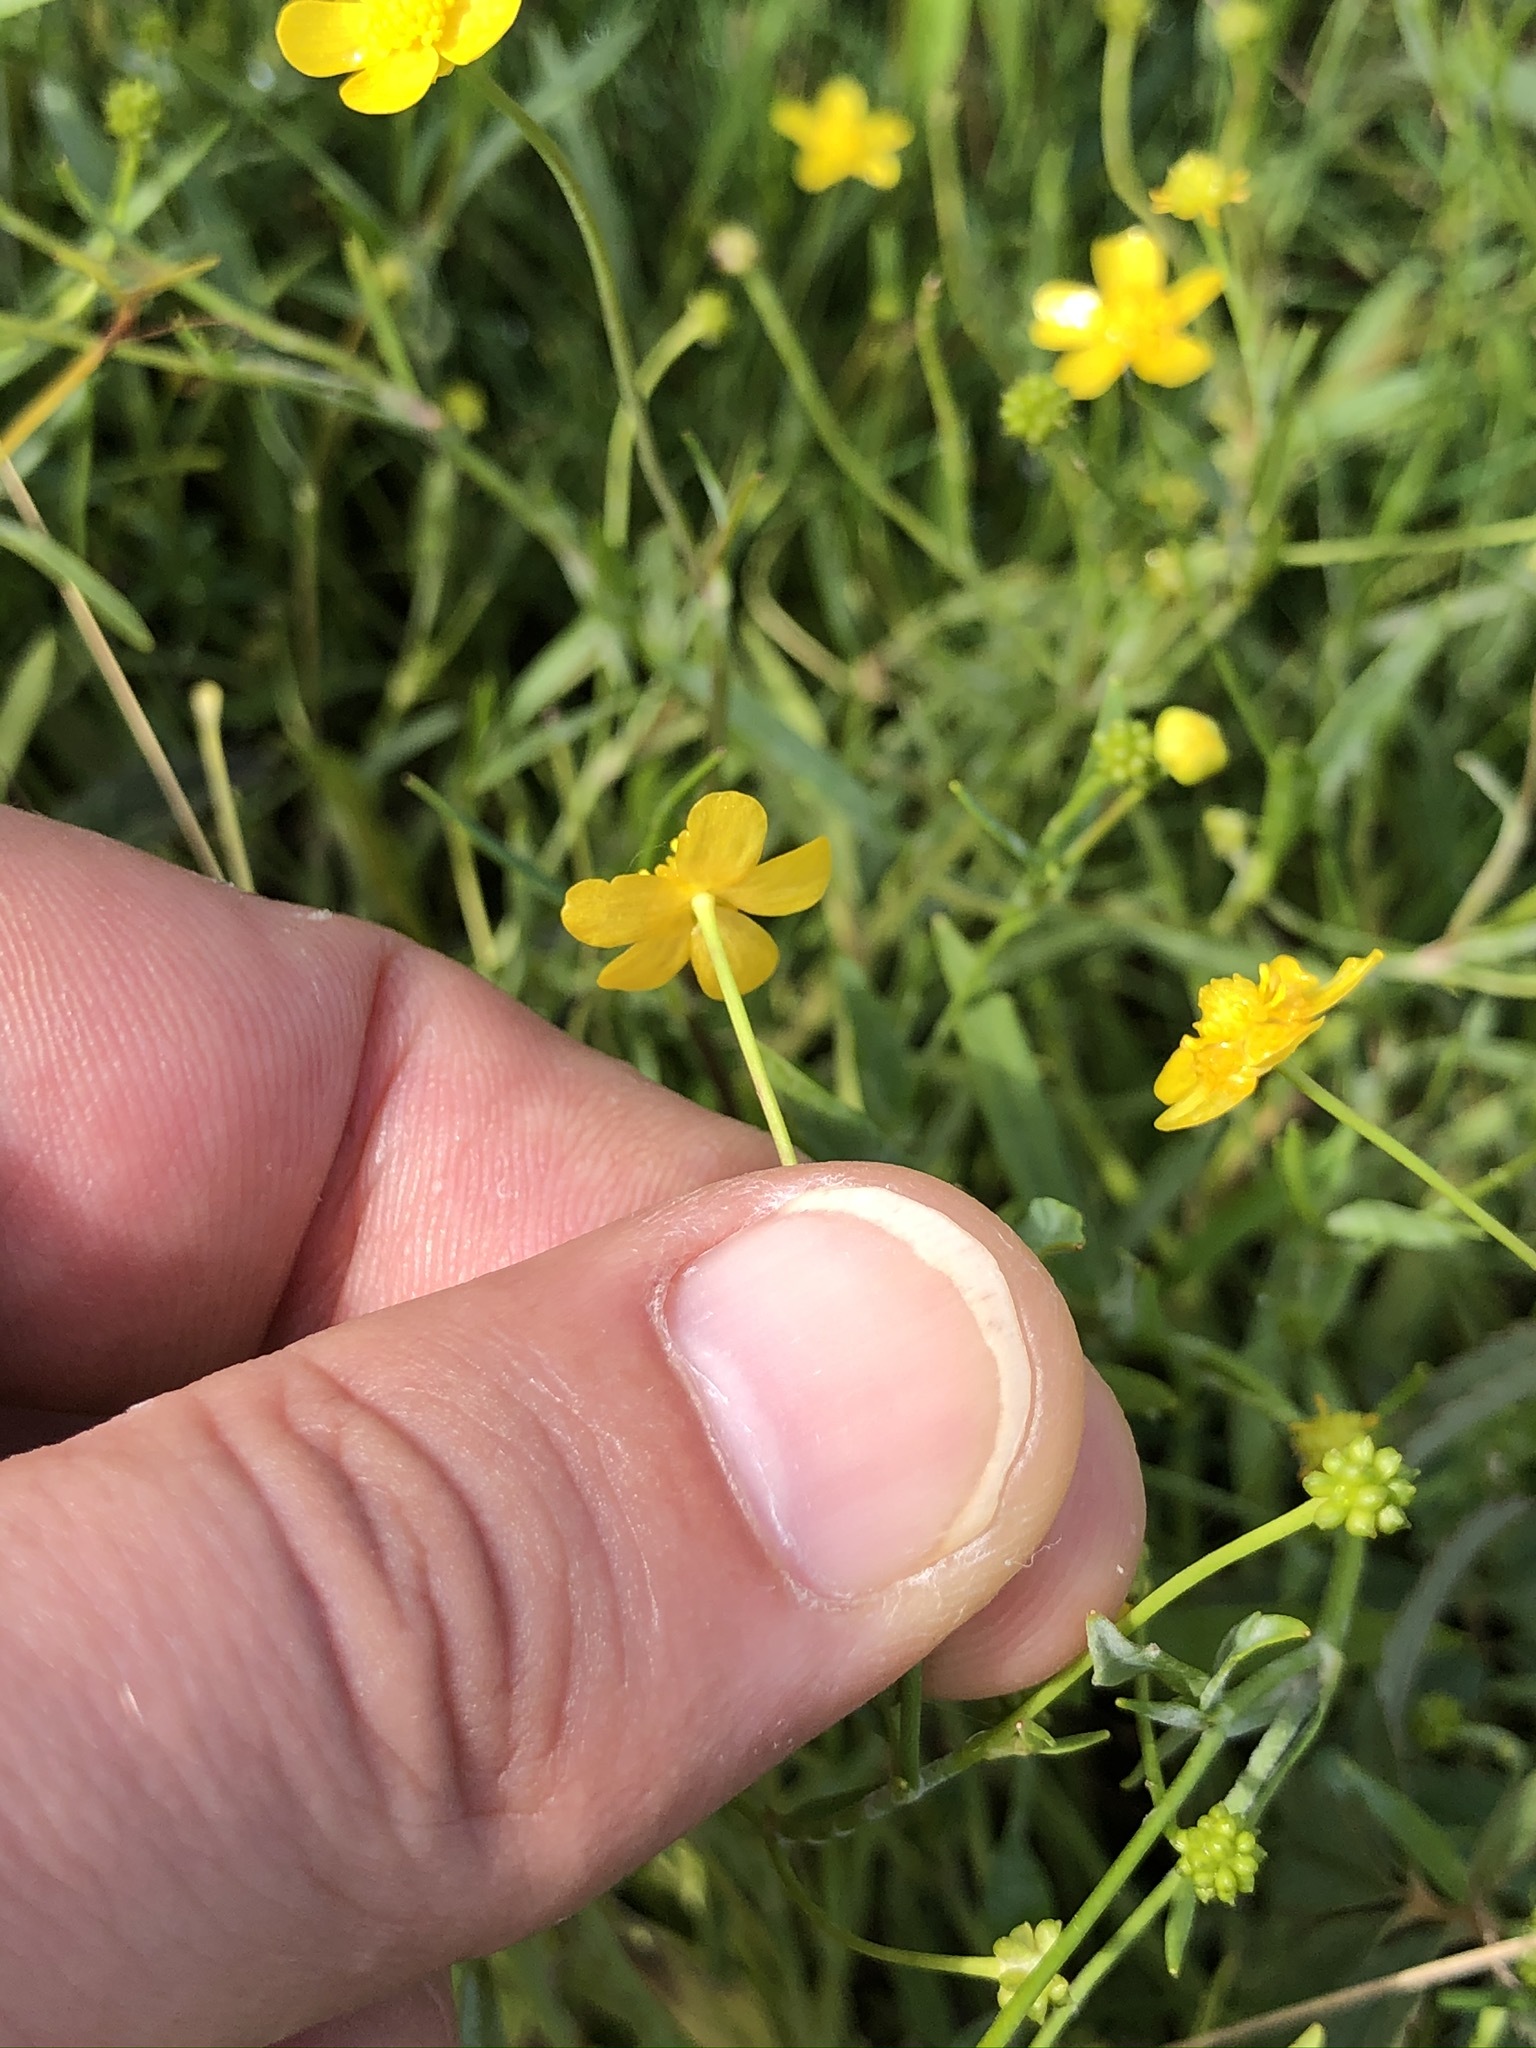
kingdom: Plantae
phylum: Tracheophyta
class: Magnoliopsida
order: Ranunculales
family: Ranunculaceae
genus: Ranunculus
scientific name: Ranunculus flammula
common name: Lesser spearwort
